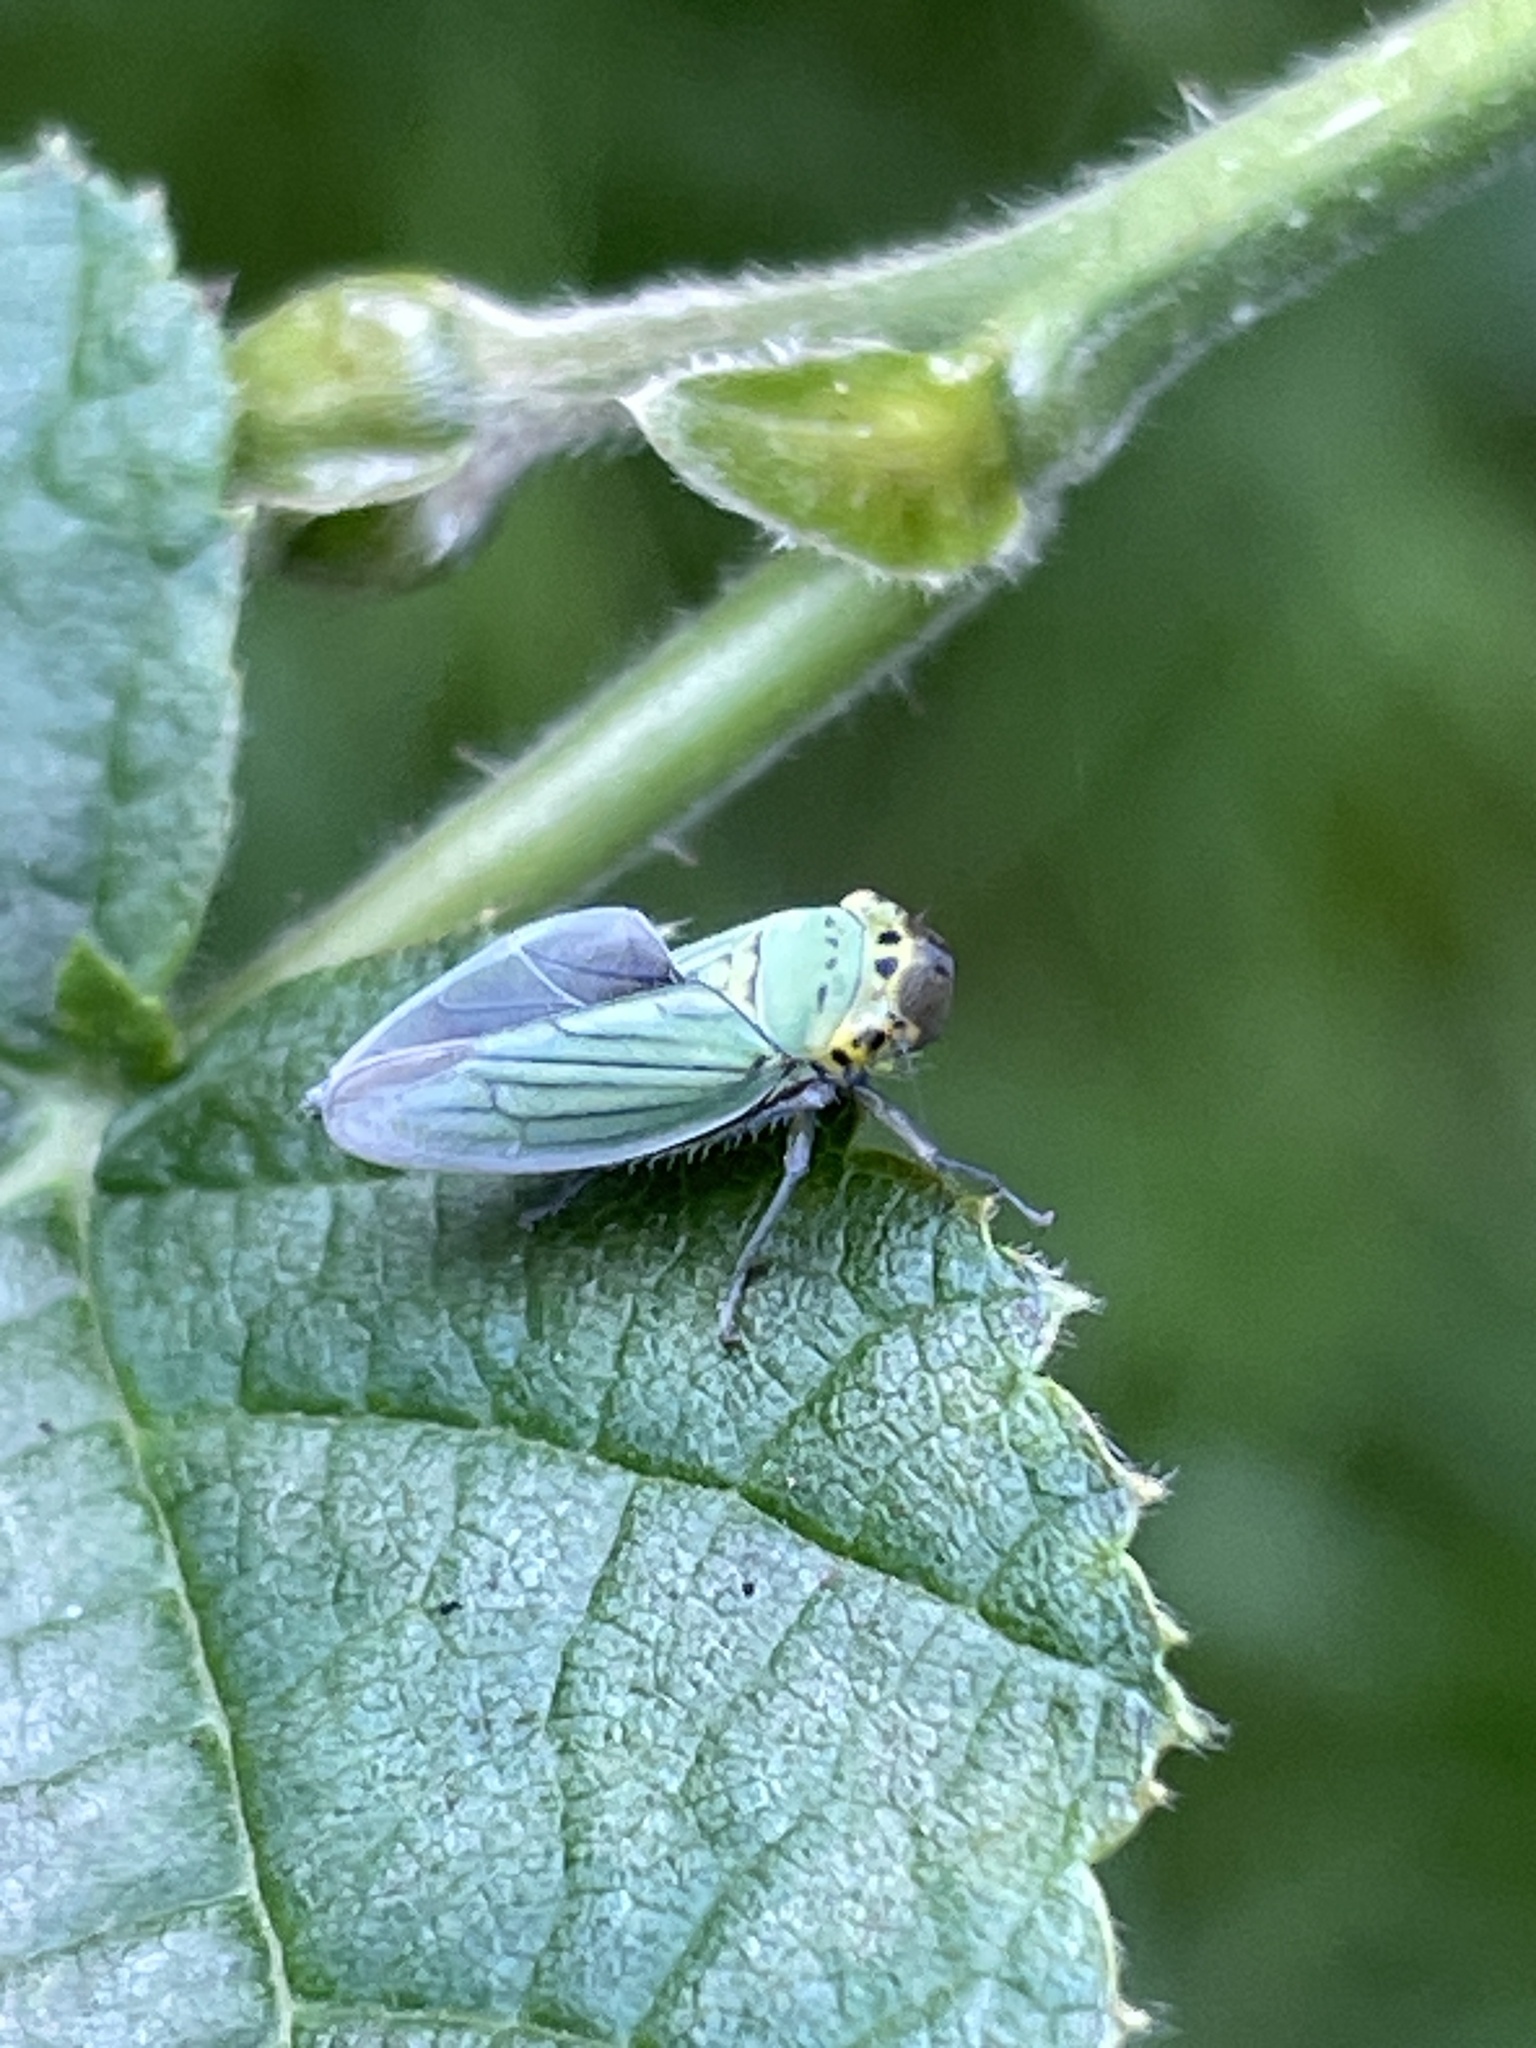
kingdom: Animalia
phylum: Arthropoda
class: Insecta
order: Hemiptera
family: Cicadellidae
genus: Cicadella
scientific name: Cicadella viridis
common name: Leafhopper
